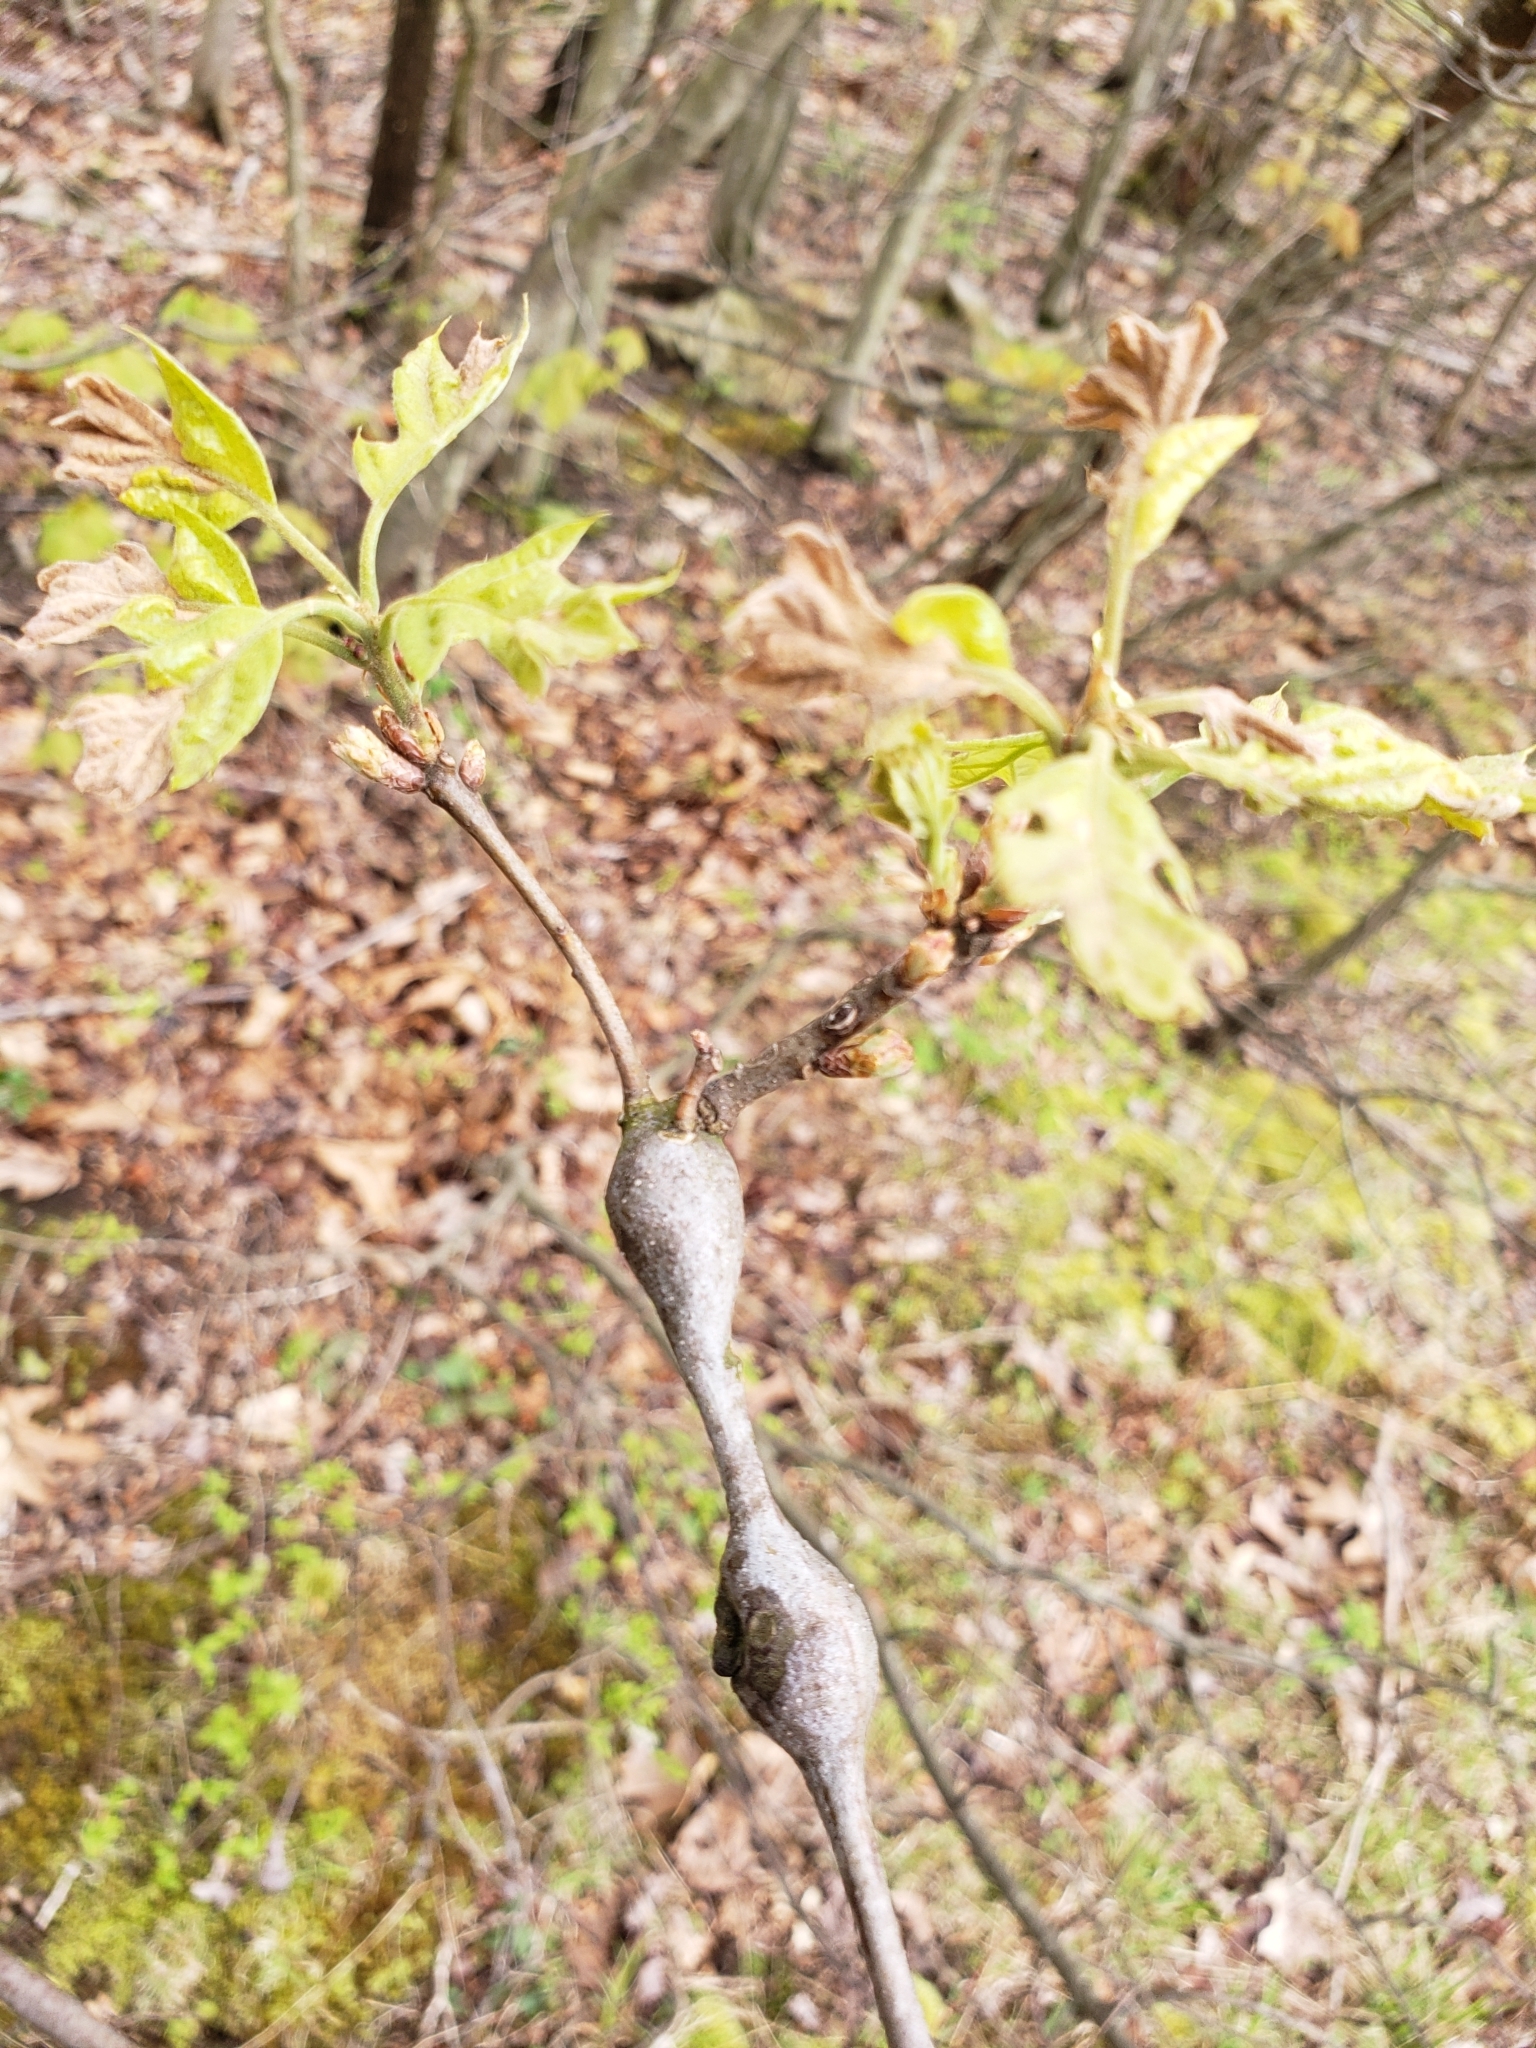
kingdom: Animalia
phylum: Arthropoda
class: Insecta
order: Hymenoptera
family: Cynipidae
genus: Zapatella
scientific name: Zapatella quercusphellos
